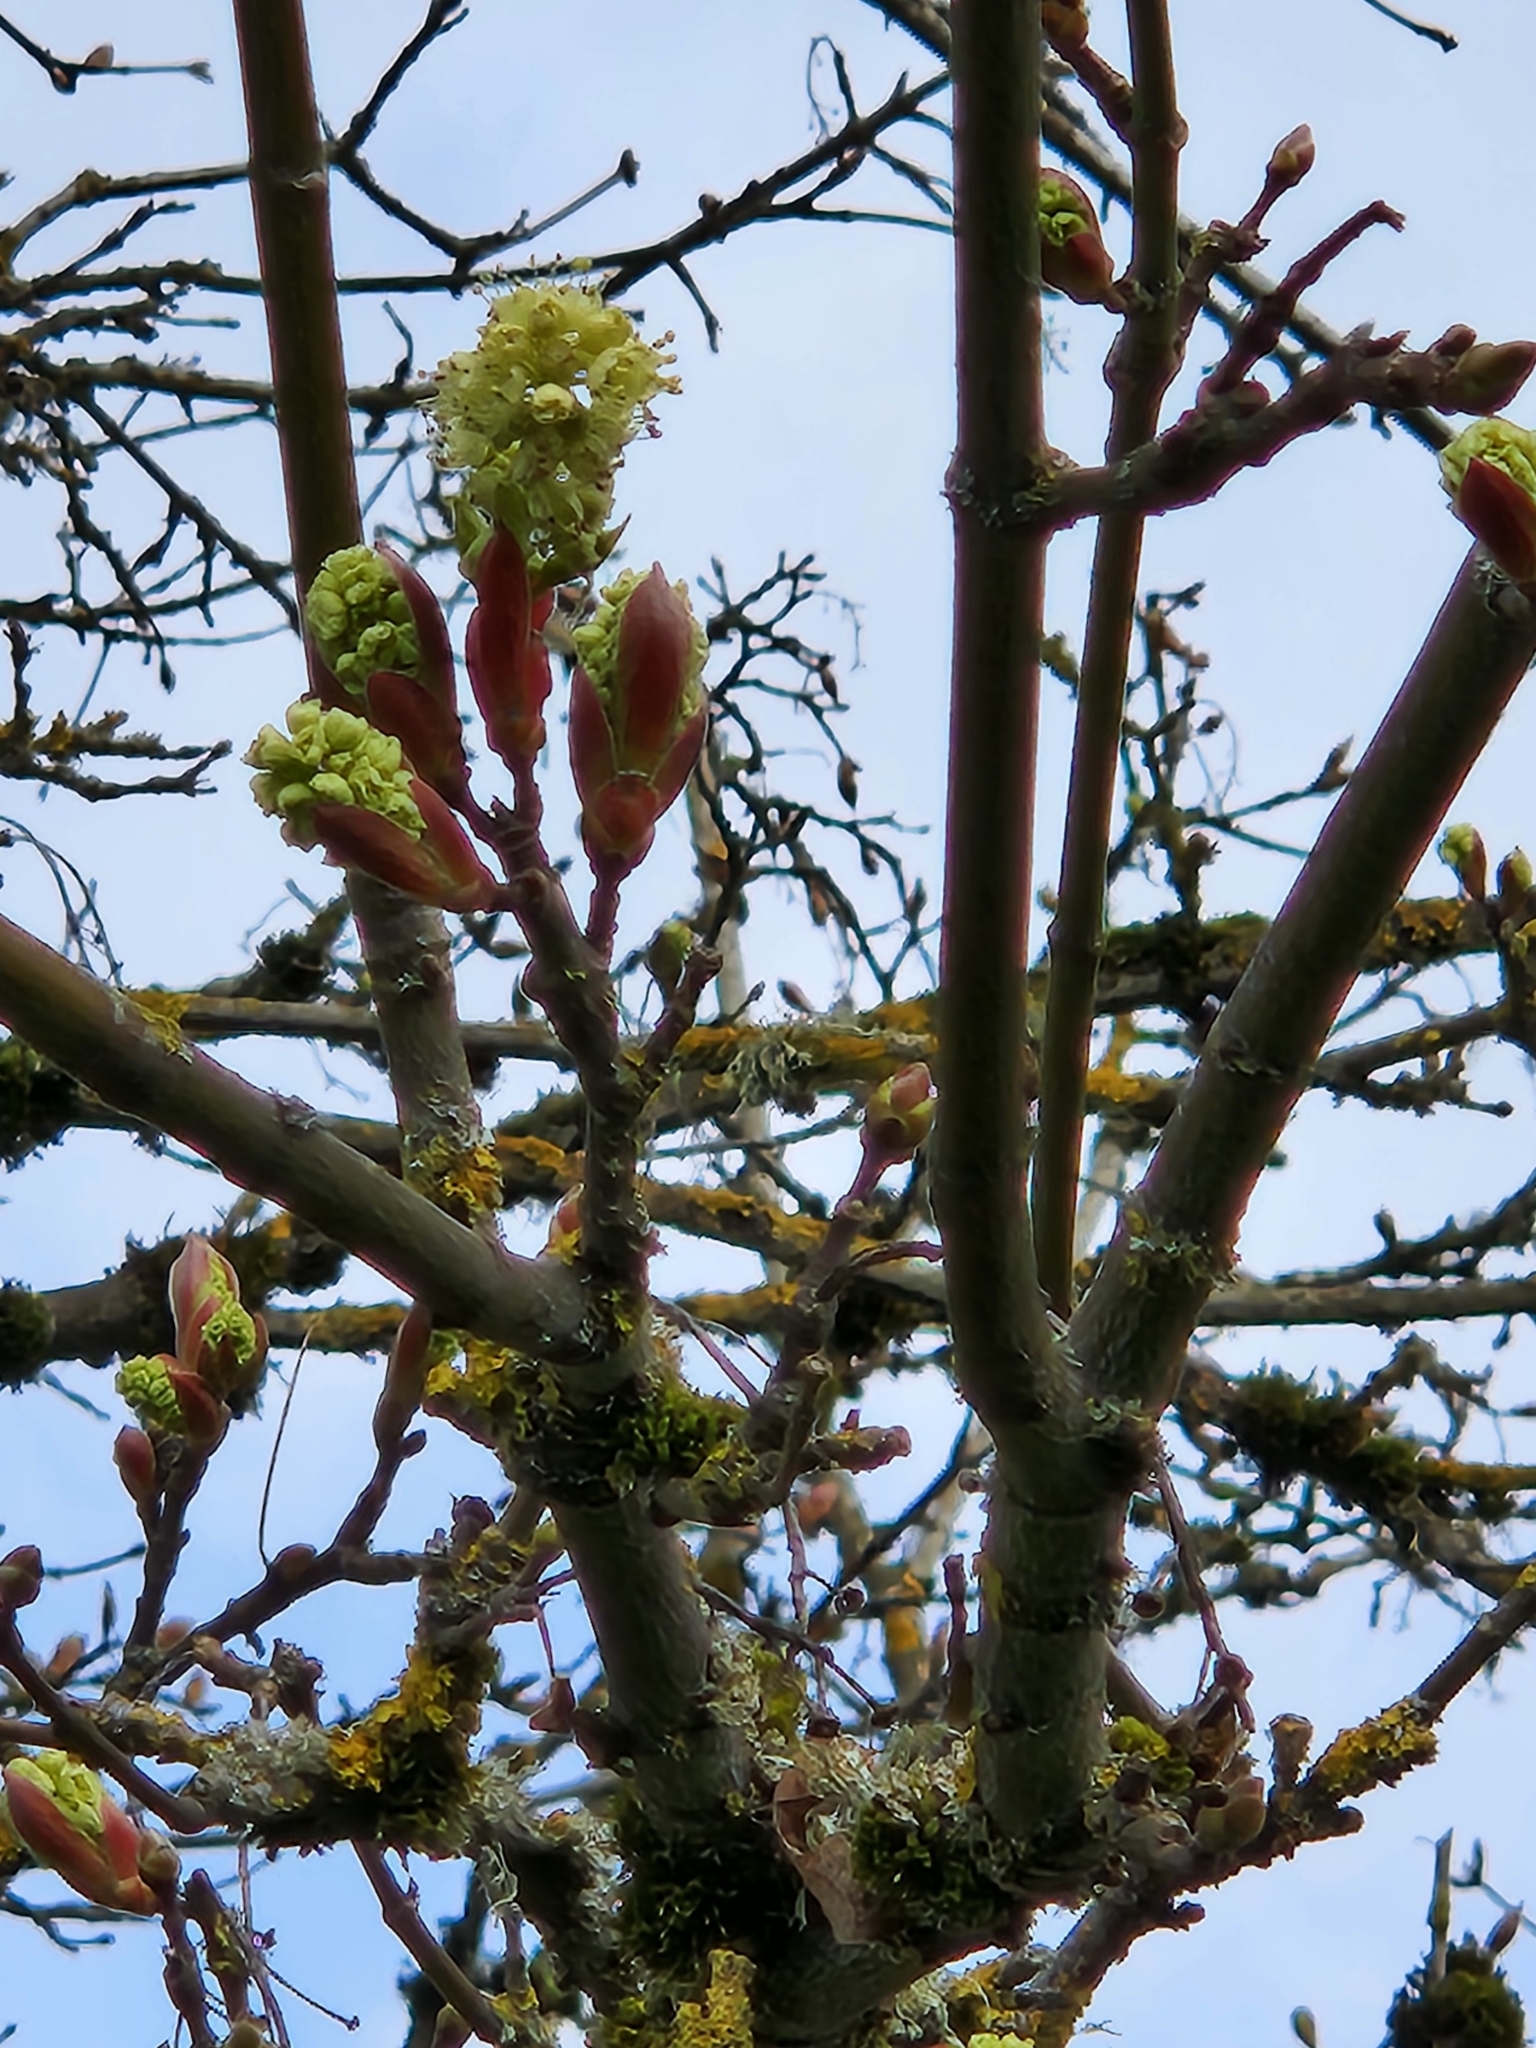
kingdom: Plantae
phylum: Tracheophyta
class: Magnoliopsida
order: Sapindales
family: Sapindaceae
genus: Acer
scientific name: Acer macrophyllum
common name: Oregon maple
